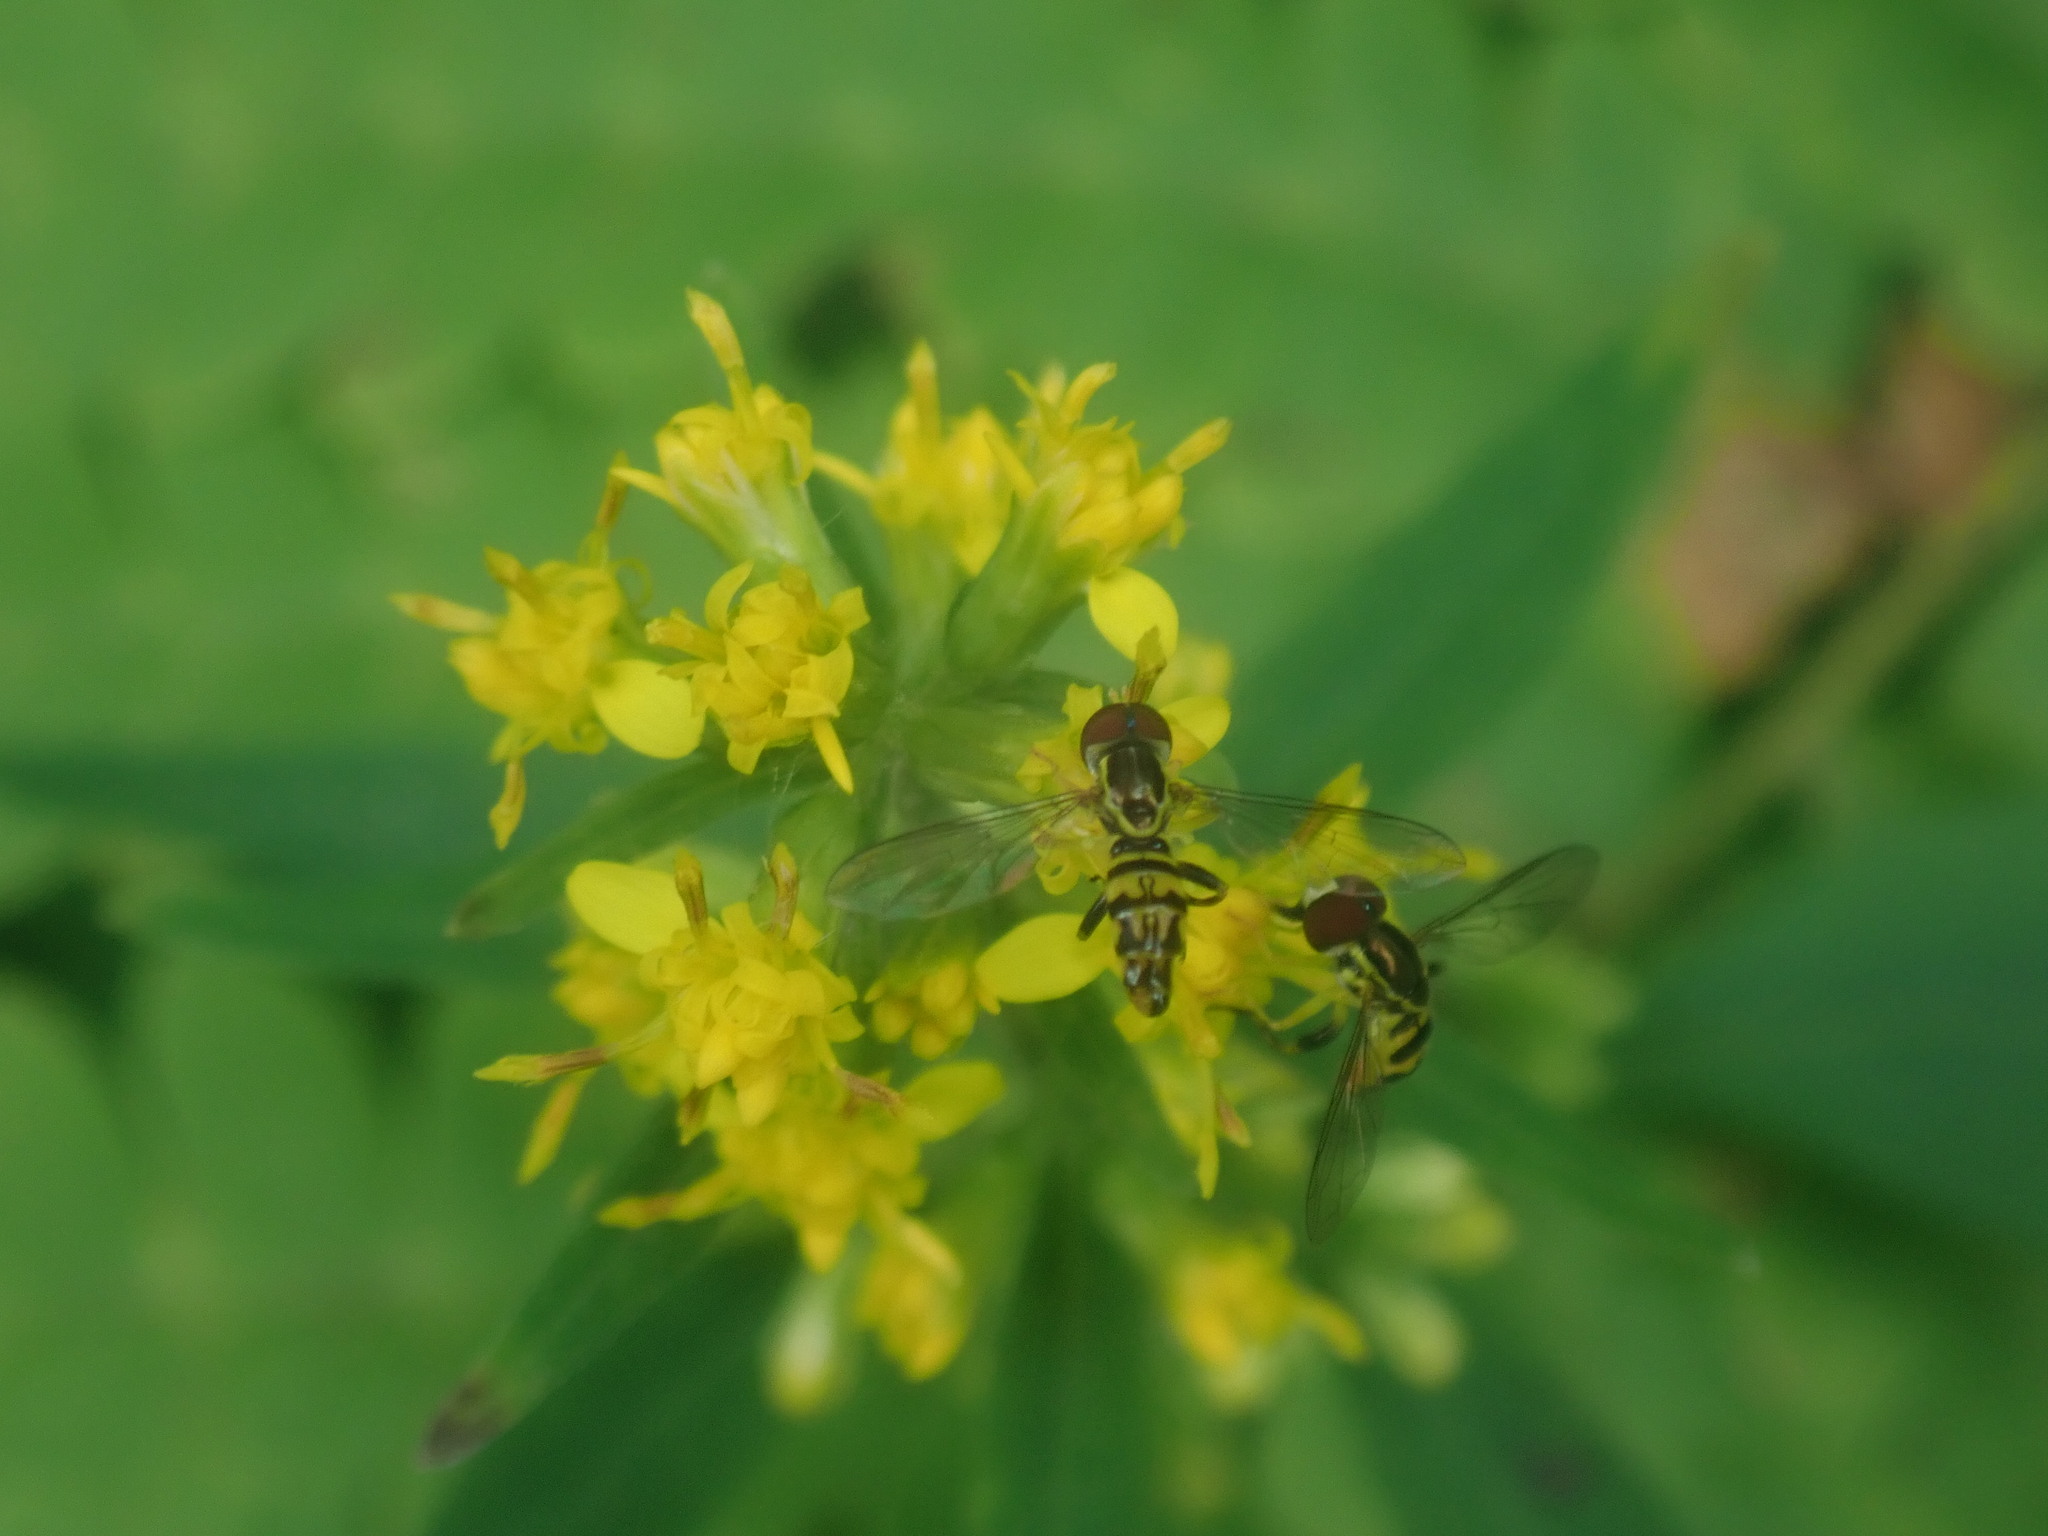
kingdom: Animalia
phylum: Arthropoda
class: Insecta
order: Diptera
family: Syrphidae
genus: Toxomerus
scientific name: Toxomerus geminatus
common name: Eastern calligrapher
